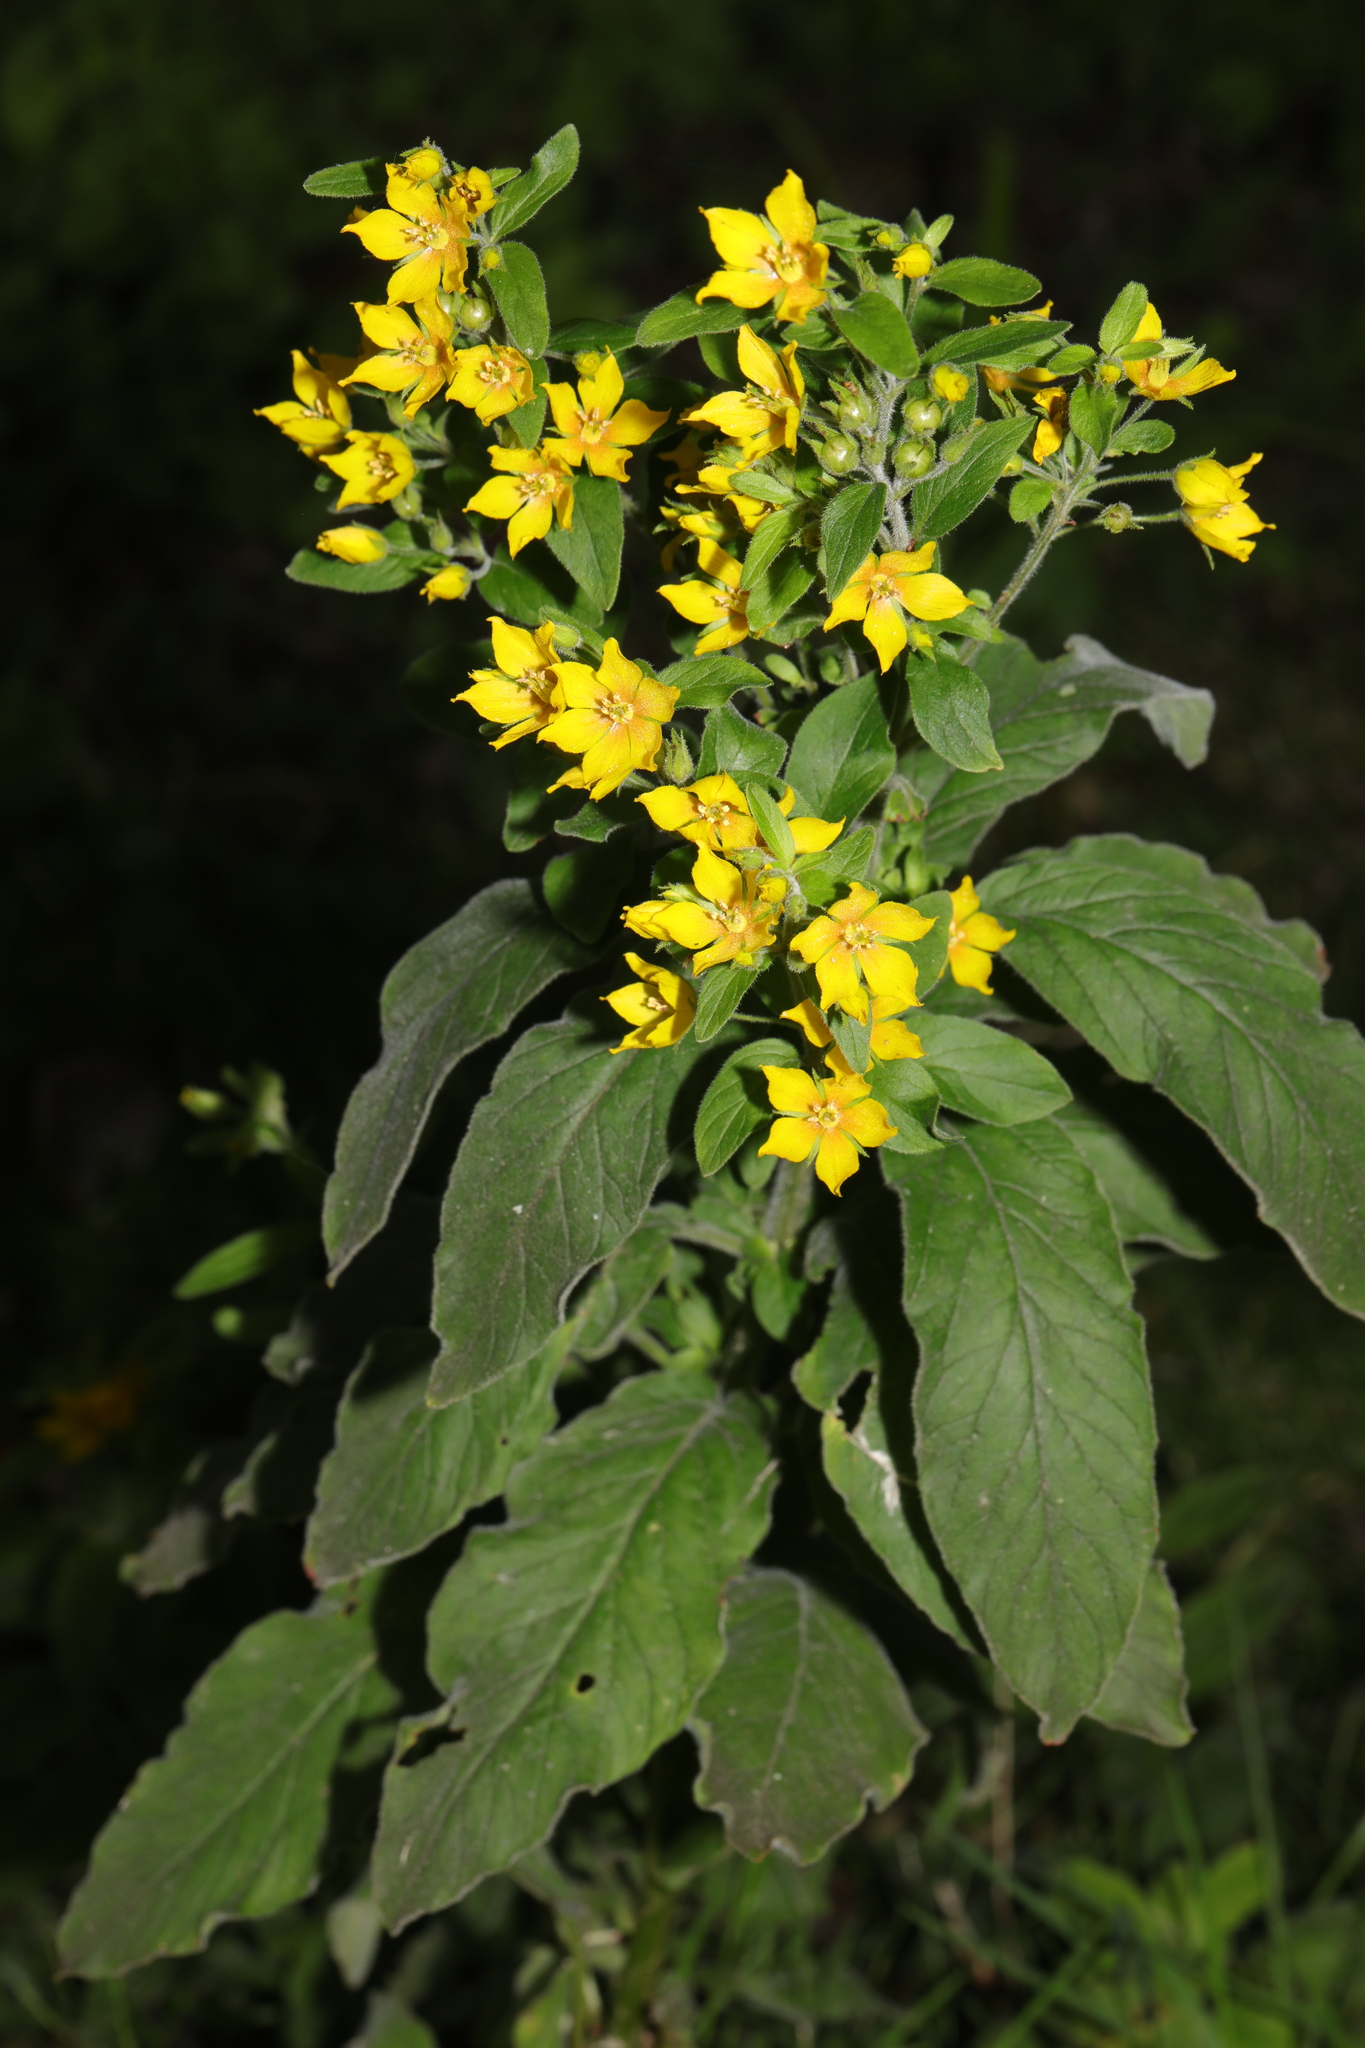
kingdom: Plantae
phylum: Tracheophyta
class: Magnoliopsida
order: Ericales
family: Primulaceae
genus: Lysimachia
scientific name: Lysimachia punctata
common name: Dotted loosestrife
